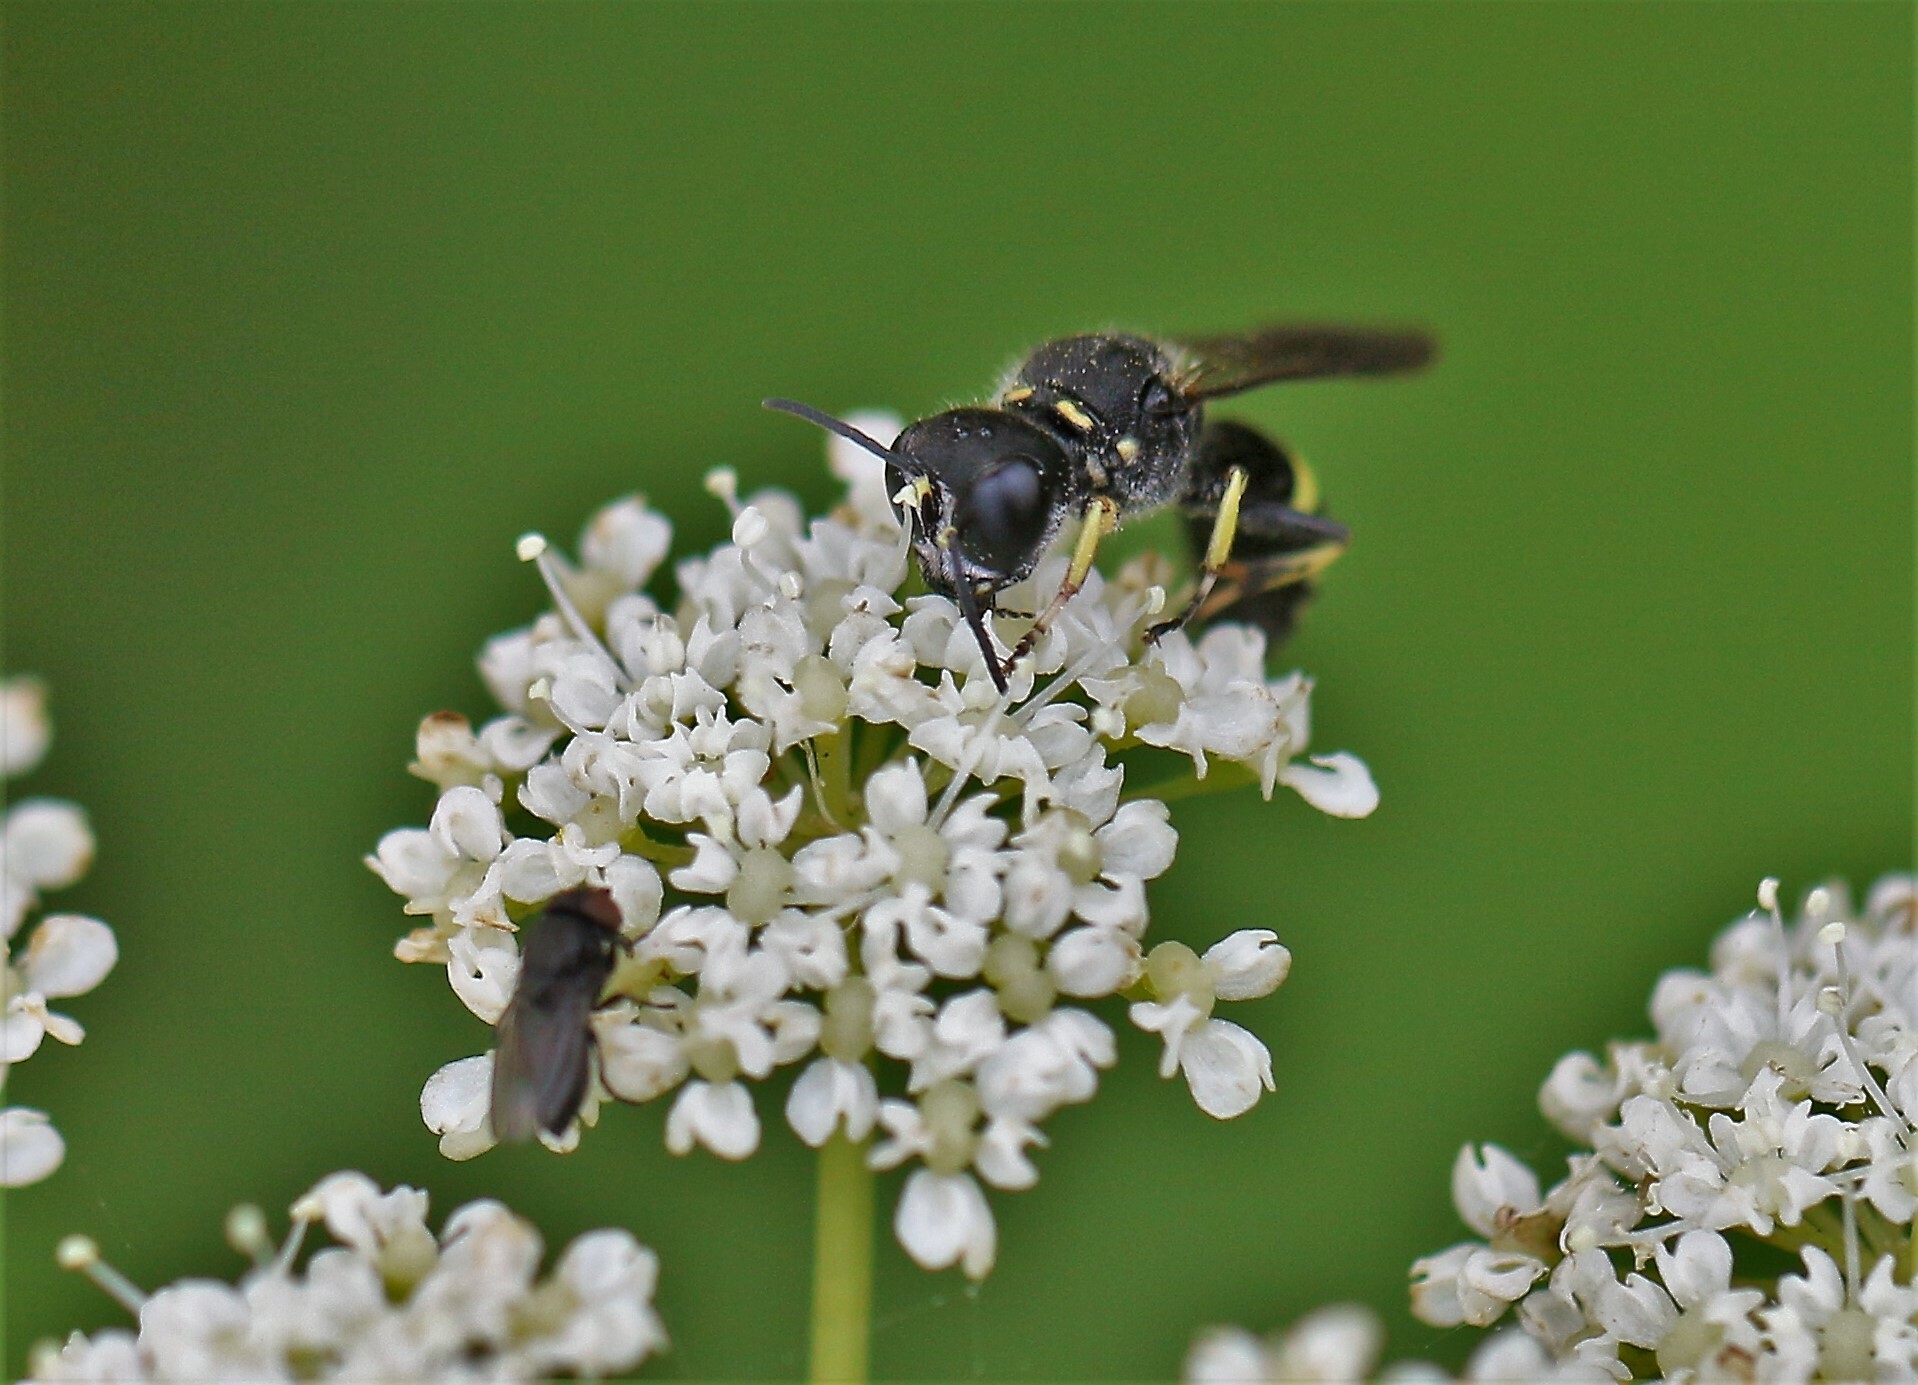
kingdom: Animalia
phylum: Arthropoda
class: Insecta
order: Hymenoptera
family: Crabronidae
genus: Ectemnius
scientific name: Ectemnius continuus
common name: Common ectemnius
